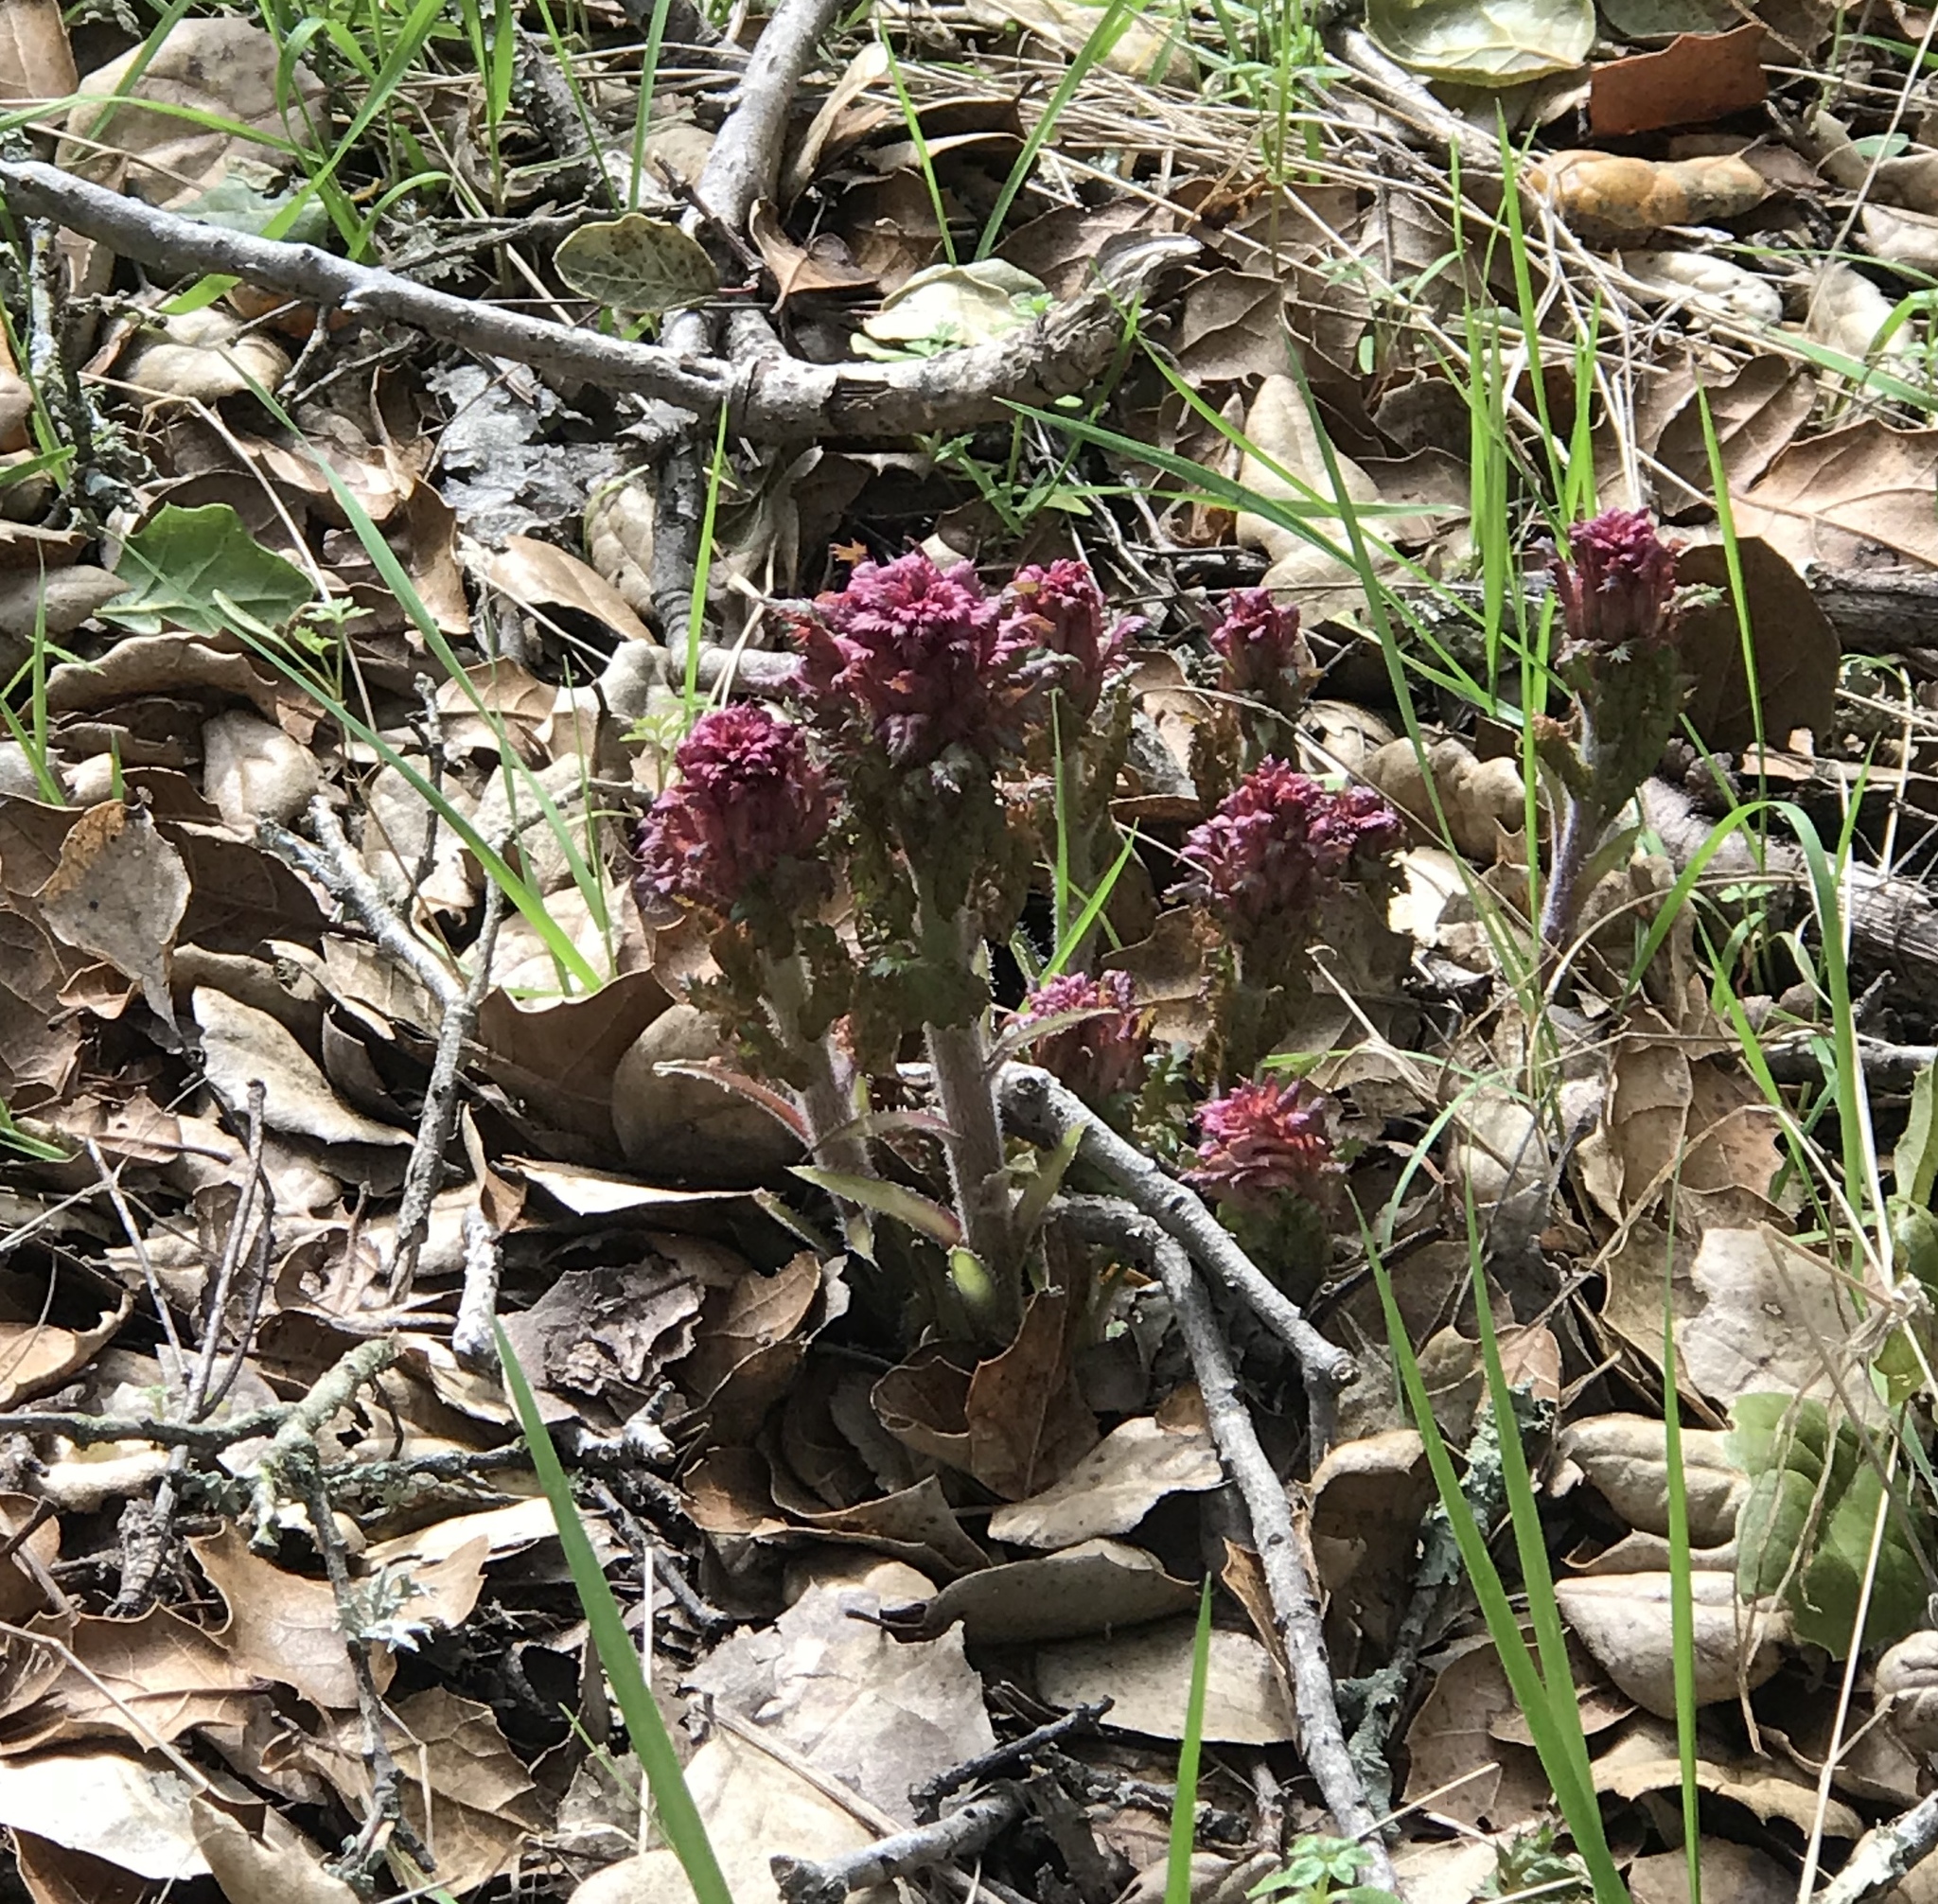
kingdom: Plantae
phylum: Tracheophyta
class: Magnoliopsida
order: Lamiales
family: Orobanchaceae
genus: Pedicularis
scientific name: Pedicularis densiflora
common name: Indian warrior
